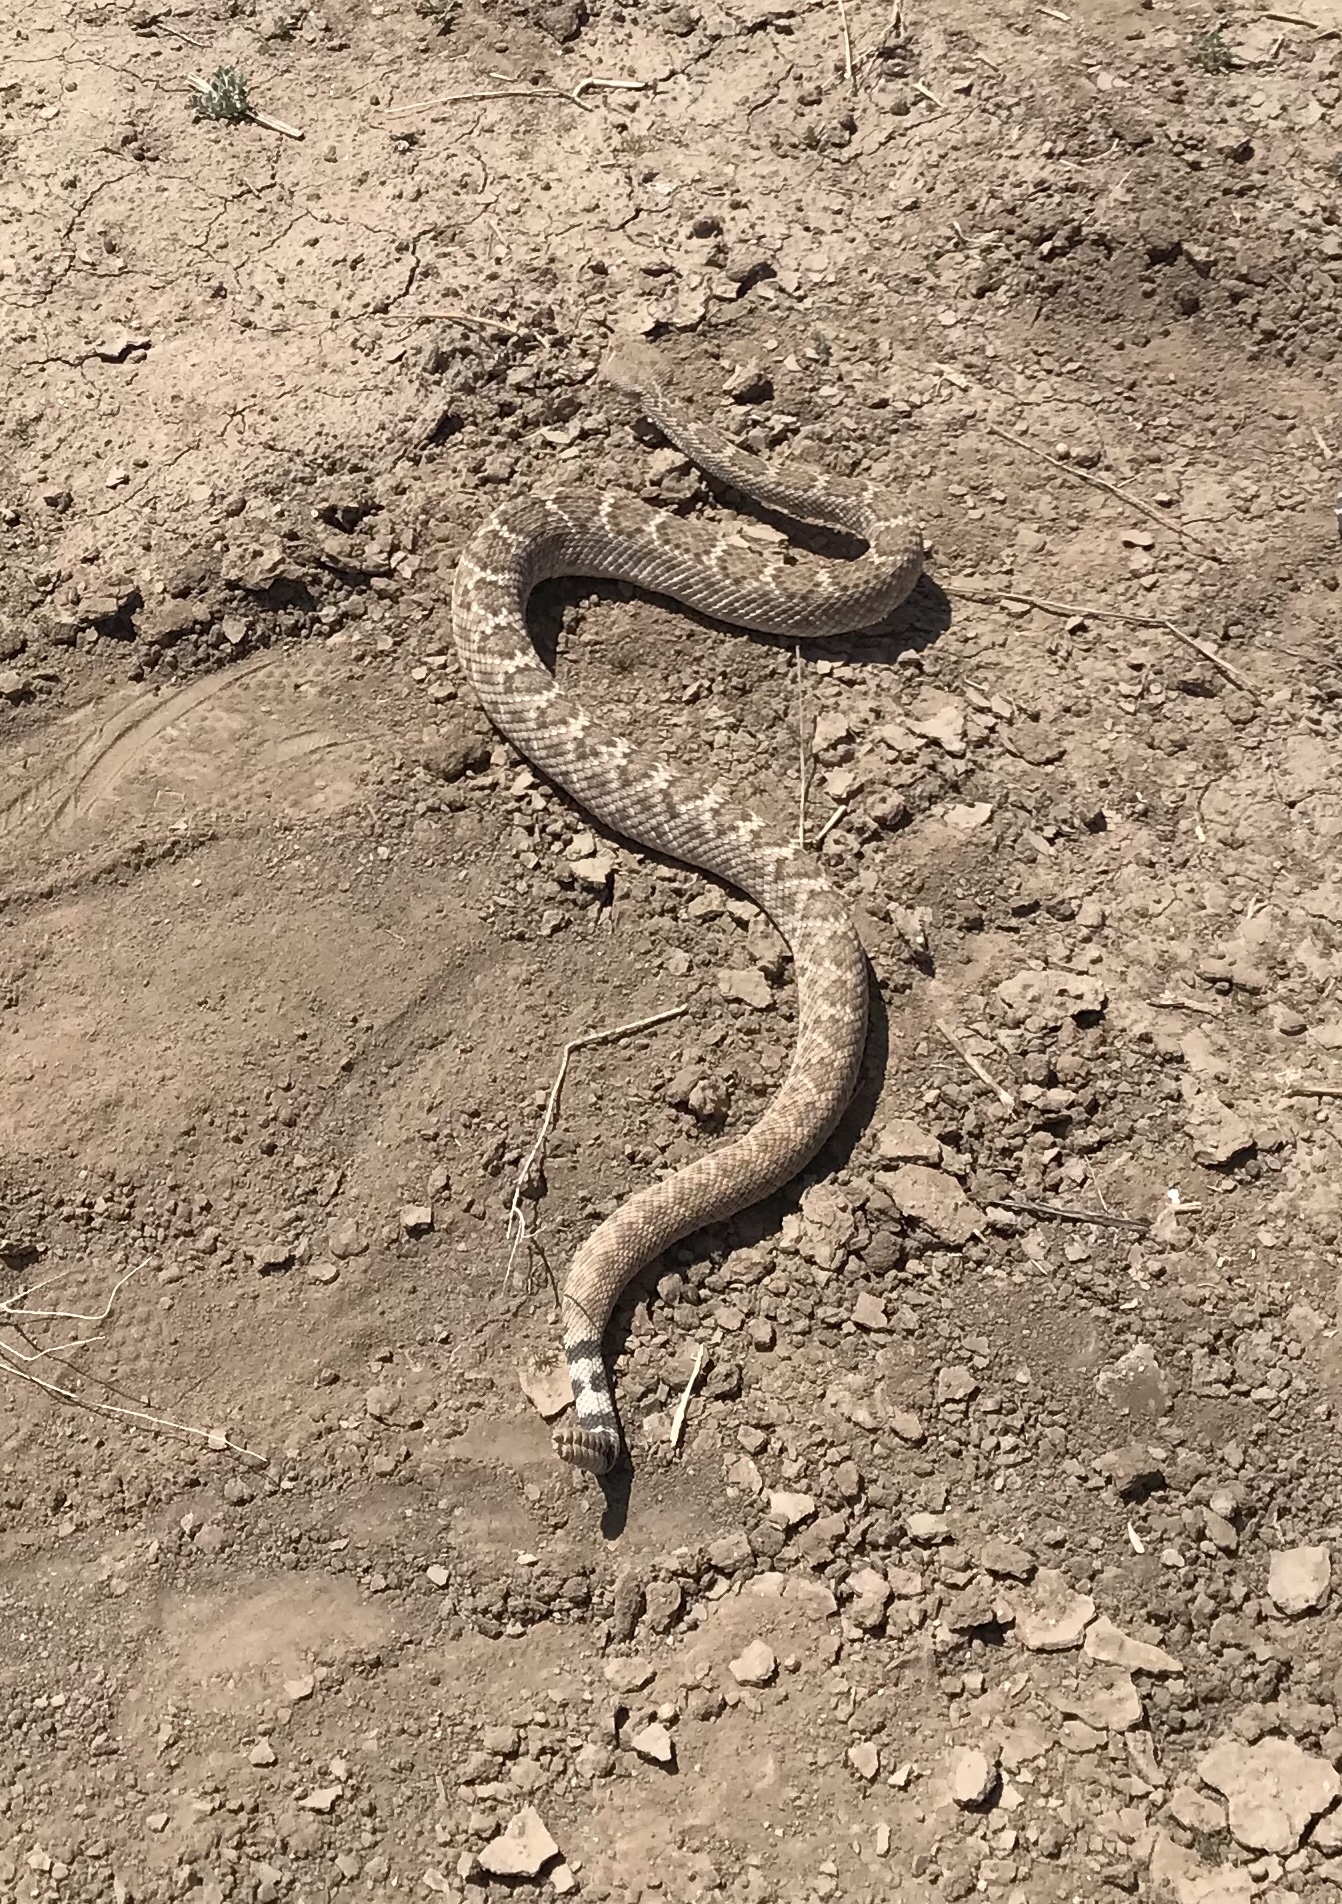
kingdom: Animalia
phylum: Chordata
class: Squamata
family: Viperidae
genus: Crotalus
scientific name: Crotalus atrox
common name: Western diamond-backed rattlesnake
